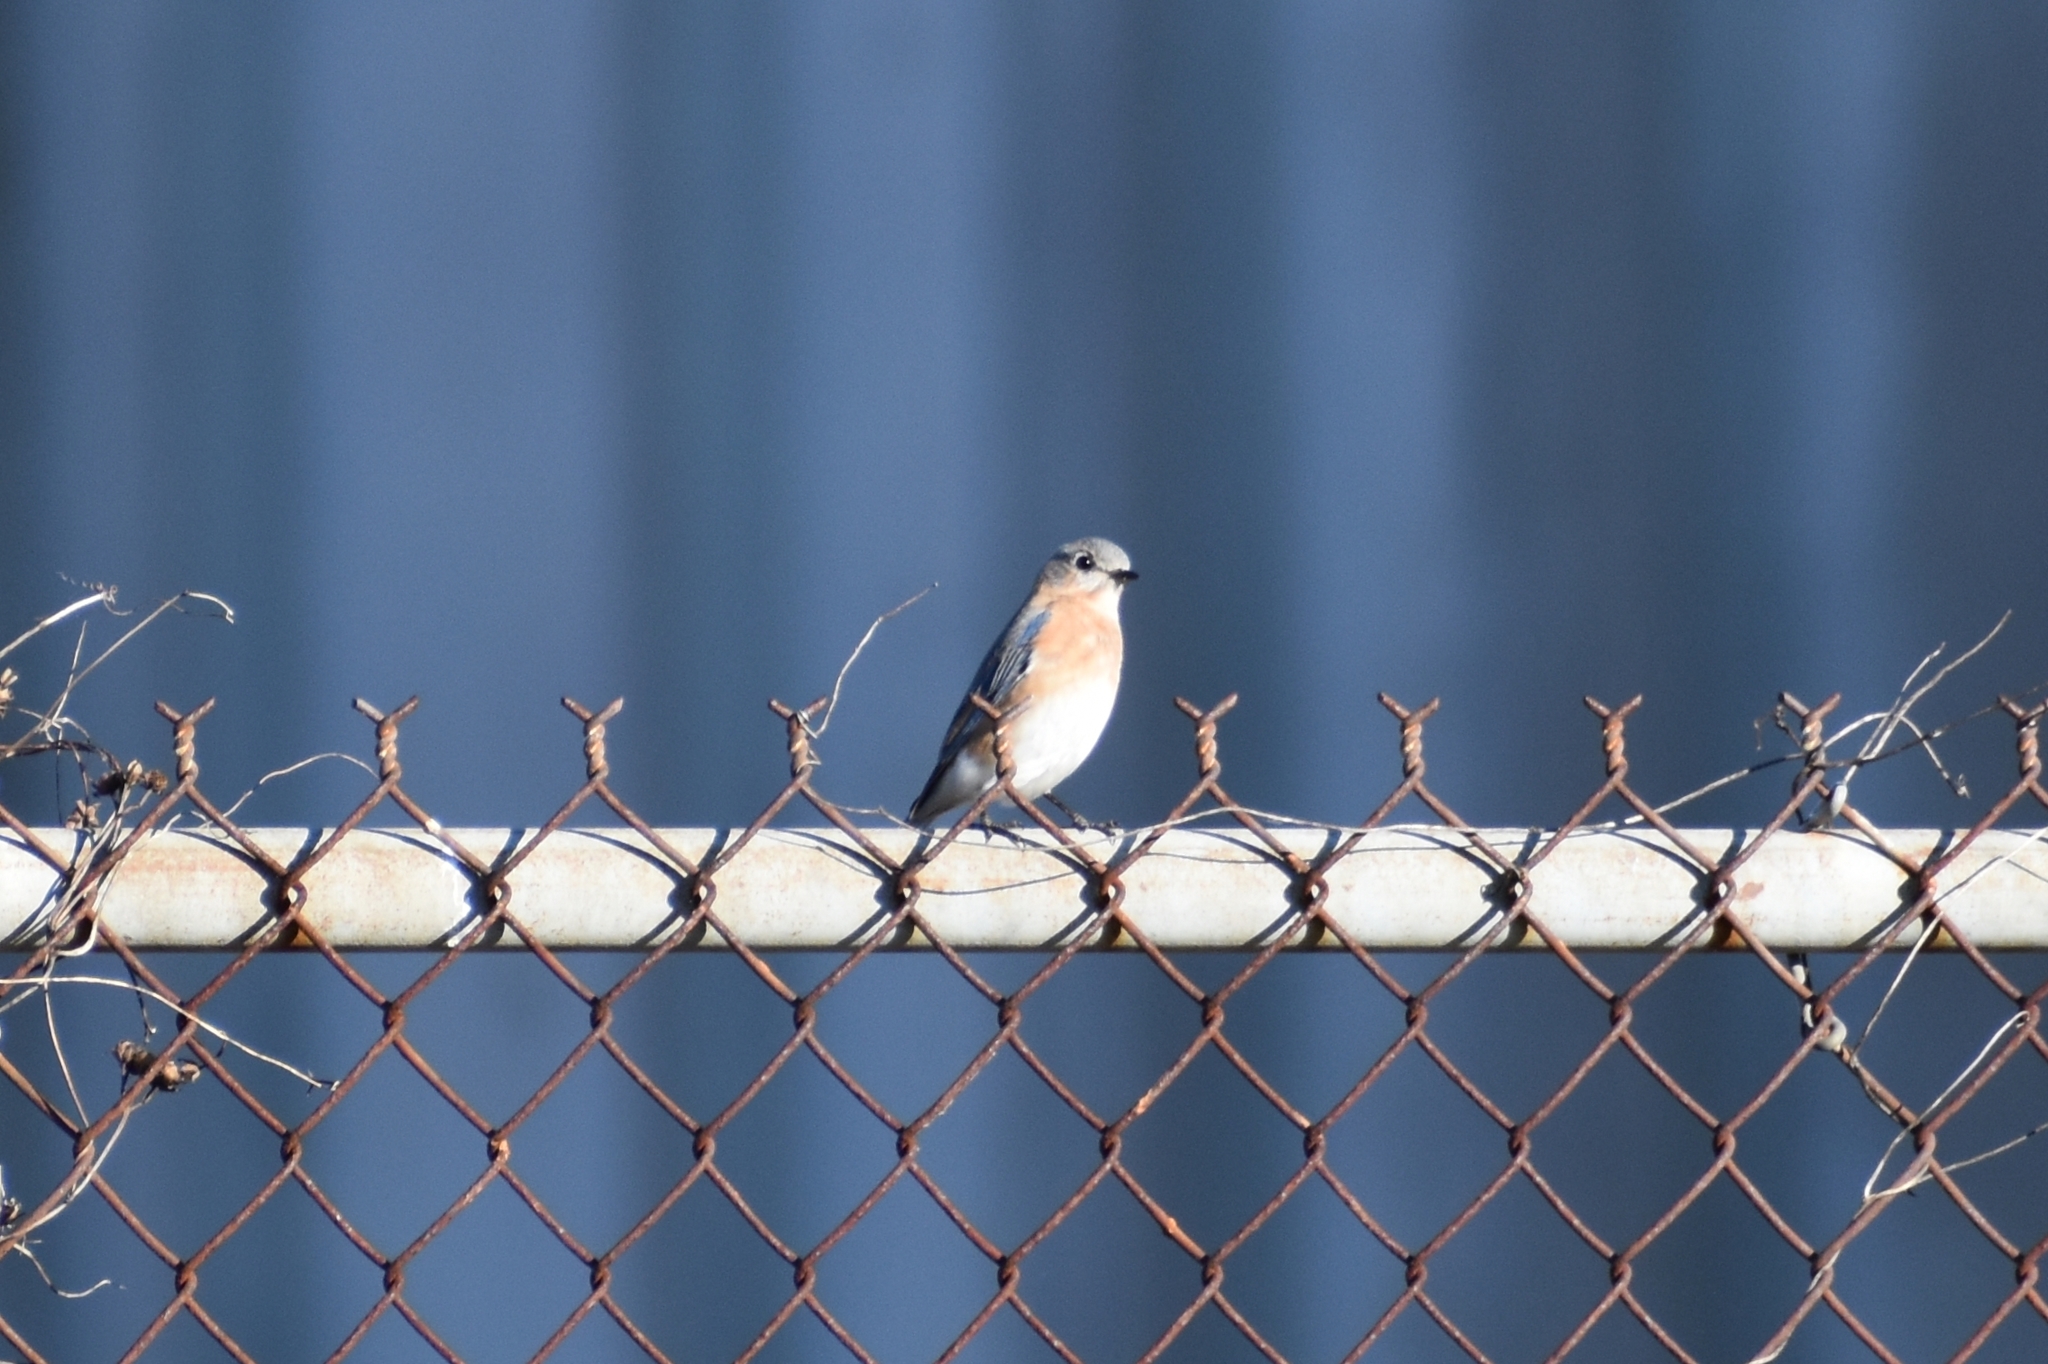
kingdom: Animalia
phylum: Chordata
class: Aves
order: Passeriformes
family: Turdidae
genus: Sialia
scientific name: Sialia sialis
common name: Eastern bluebird
